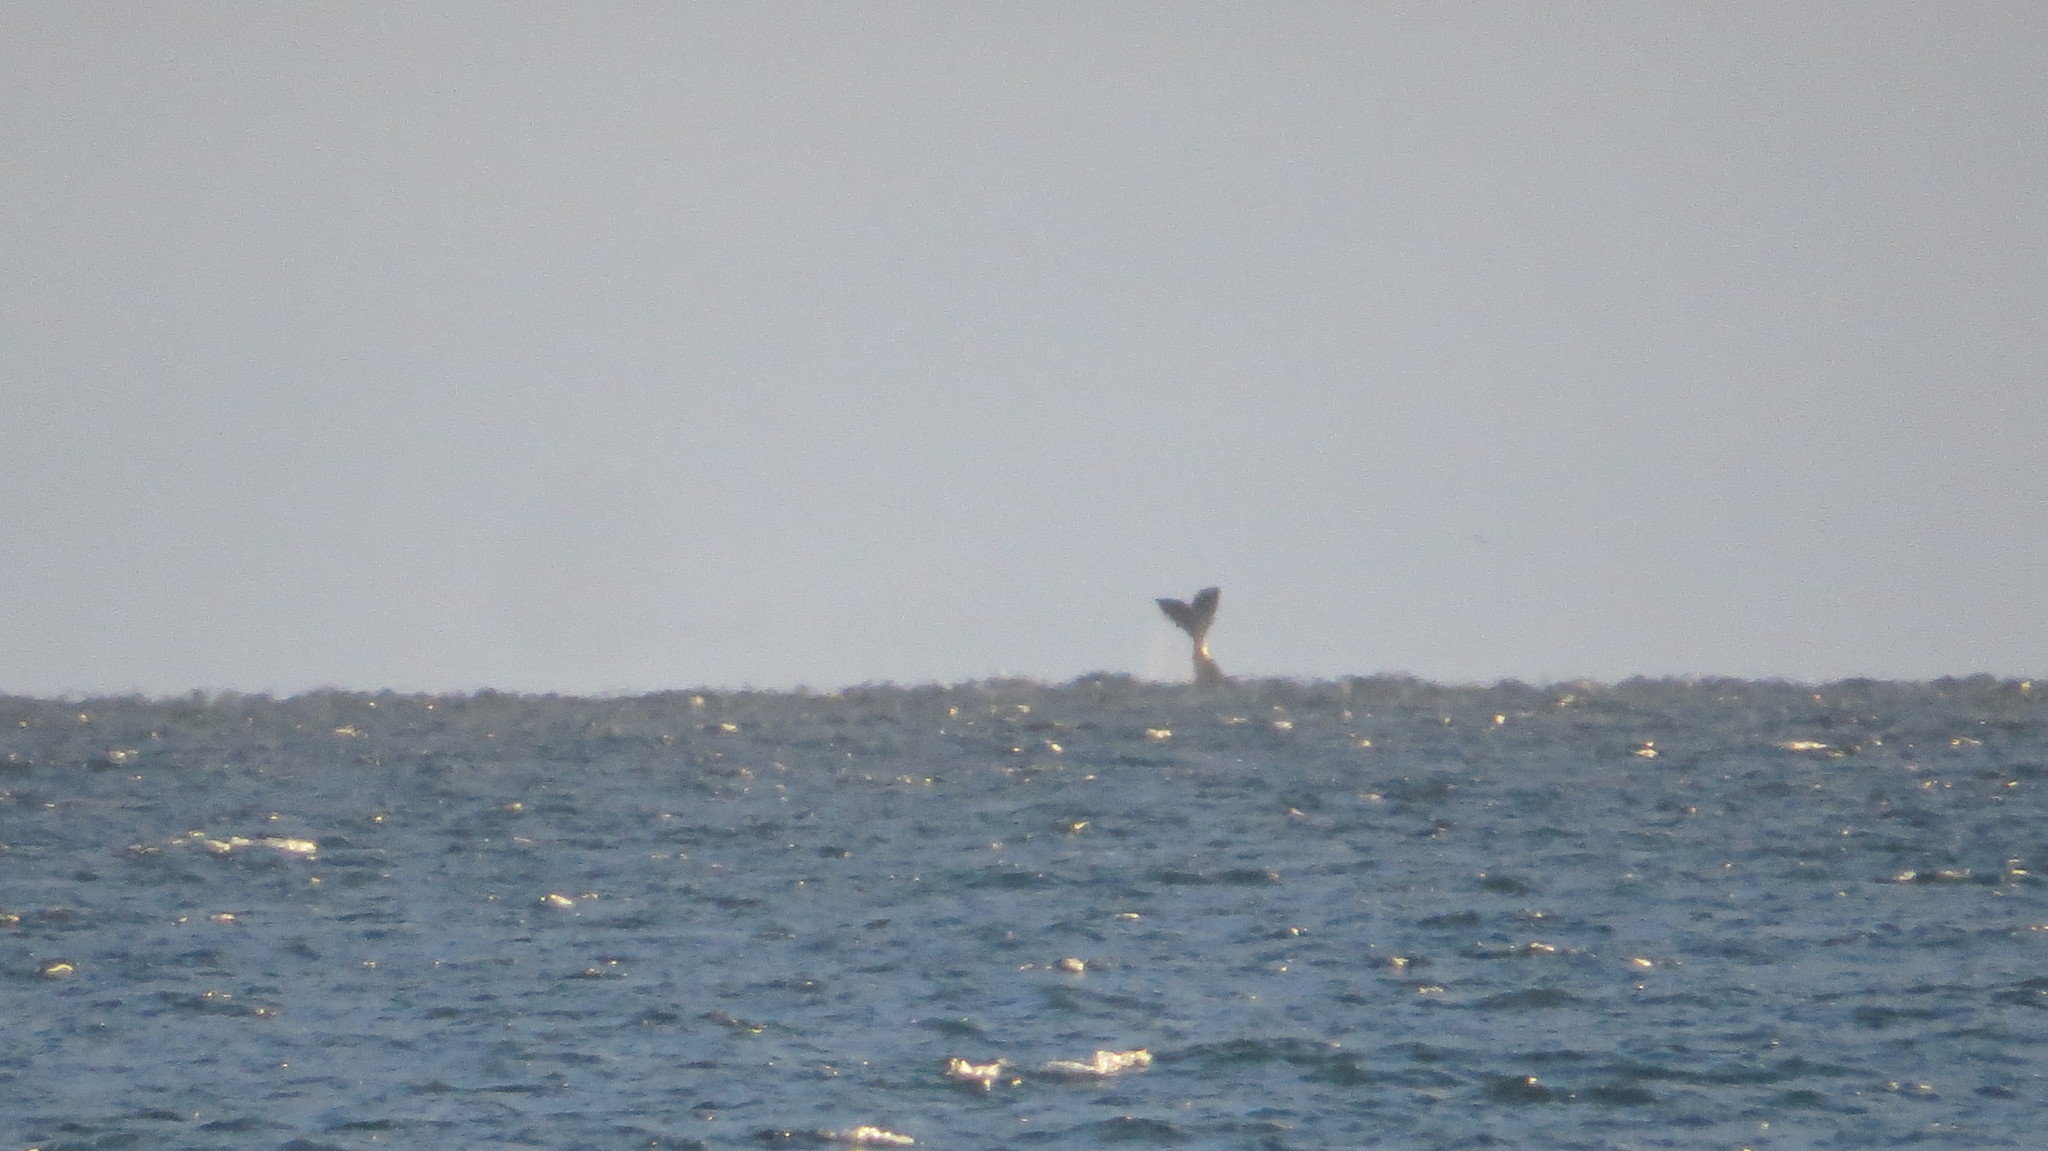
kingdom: Animalia
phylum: Chordata
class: Mammalia
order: Cetacea
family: Balaenidae
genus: Eubalaena
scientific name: Eubalaena australis
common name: Southern right whale
